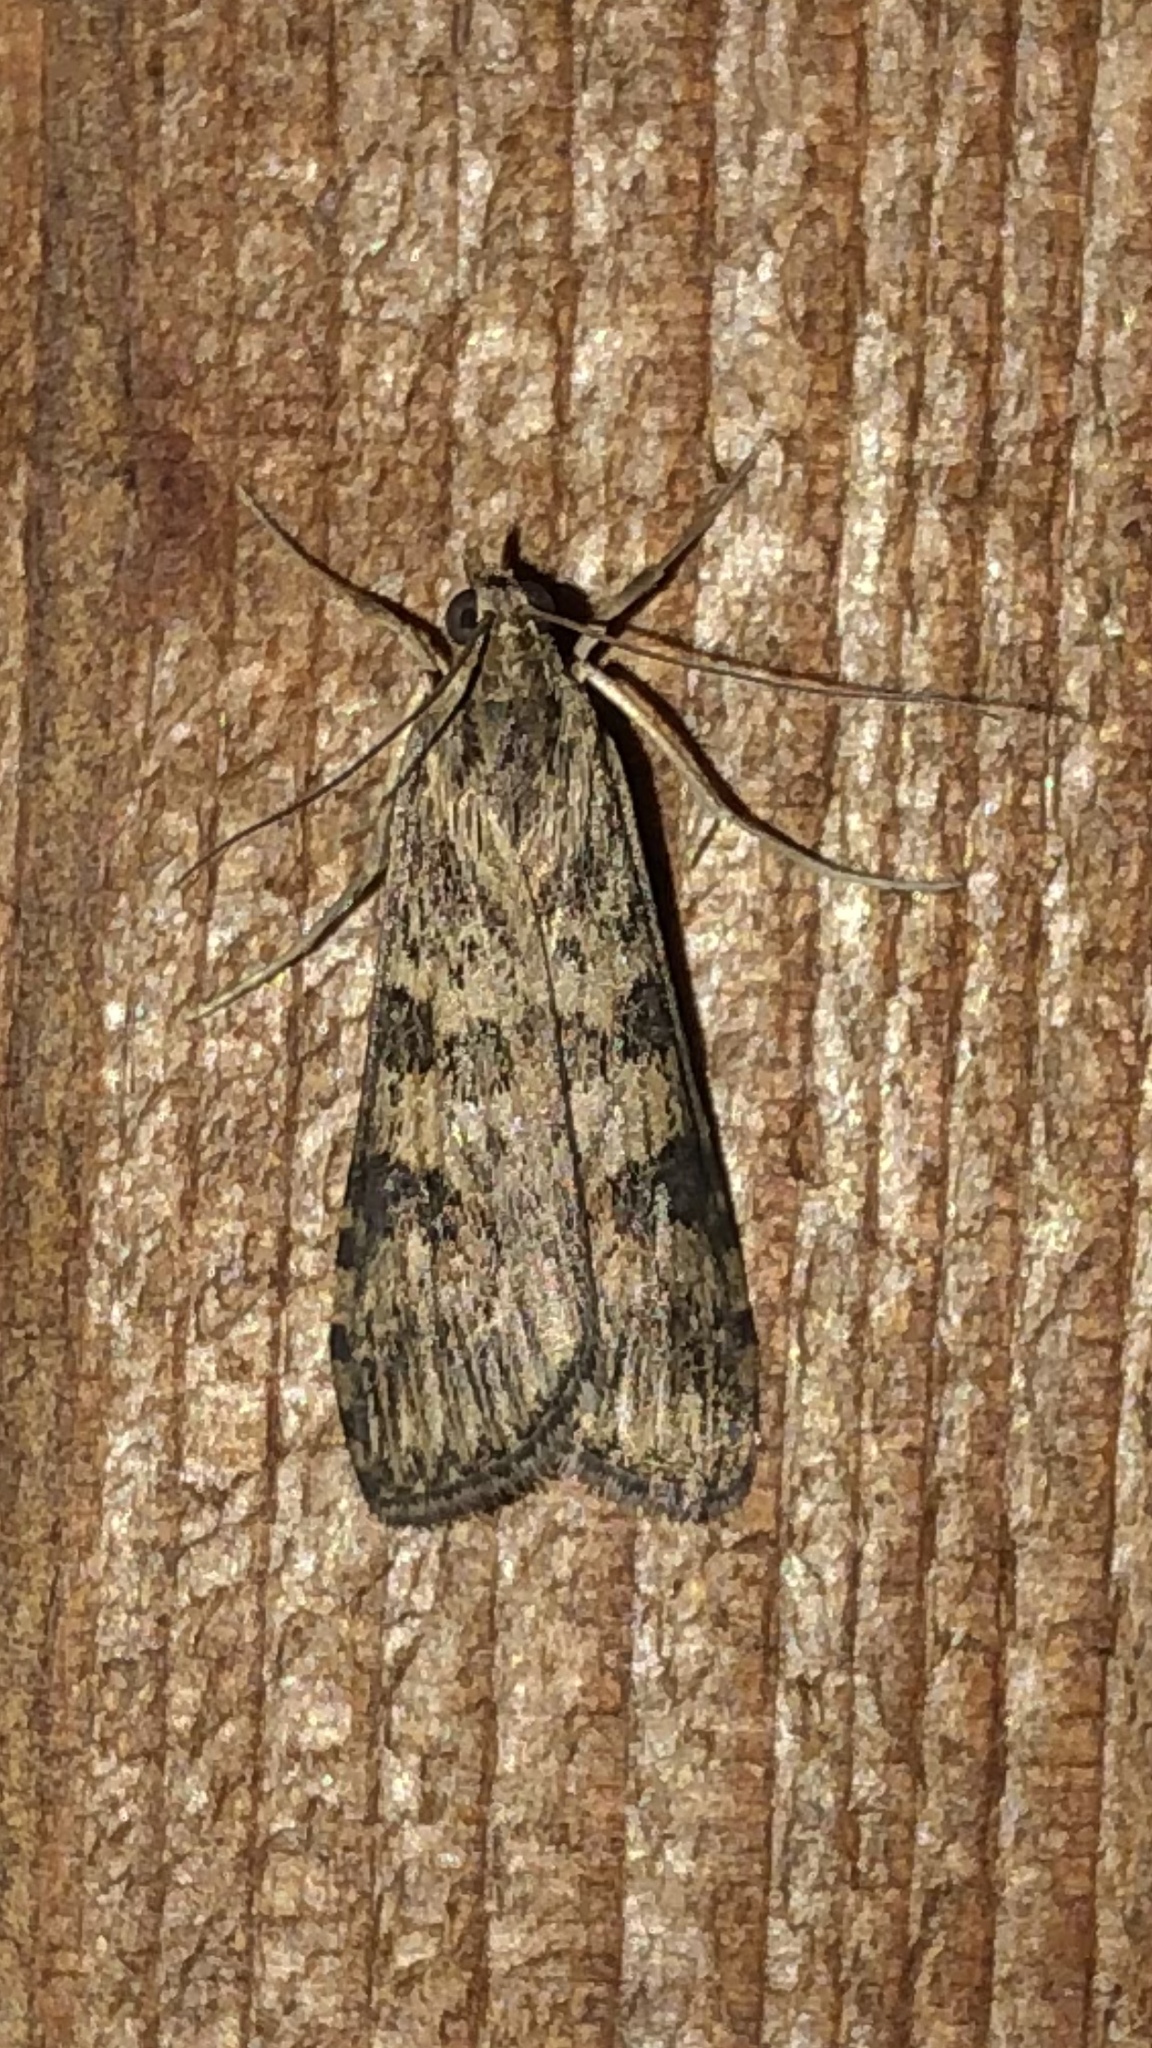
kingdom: Animalia
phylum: Arthropoda
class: Insecta
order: Lepidoptera
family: Crambidae
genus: Nomophila
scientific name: Nomophila nearctica
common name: American rush veneer
